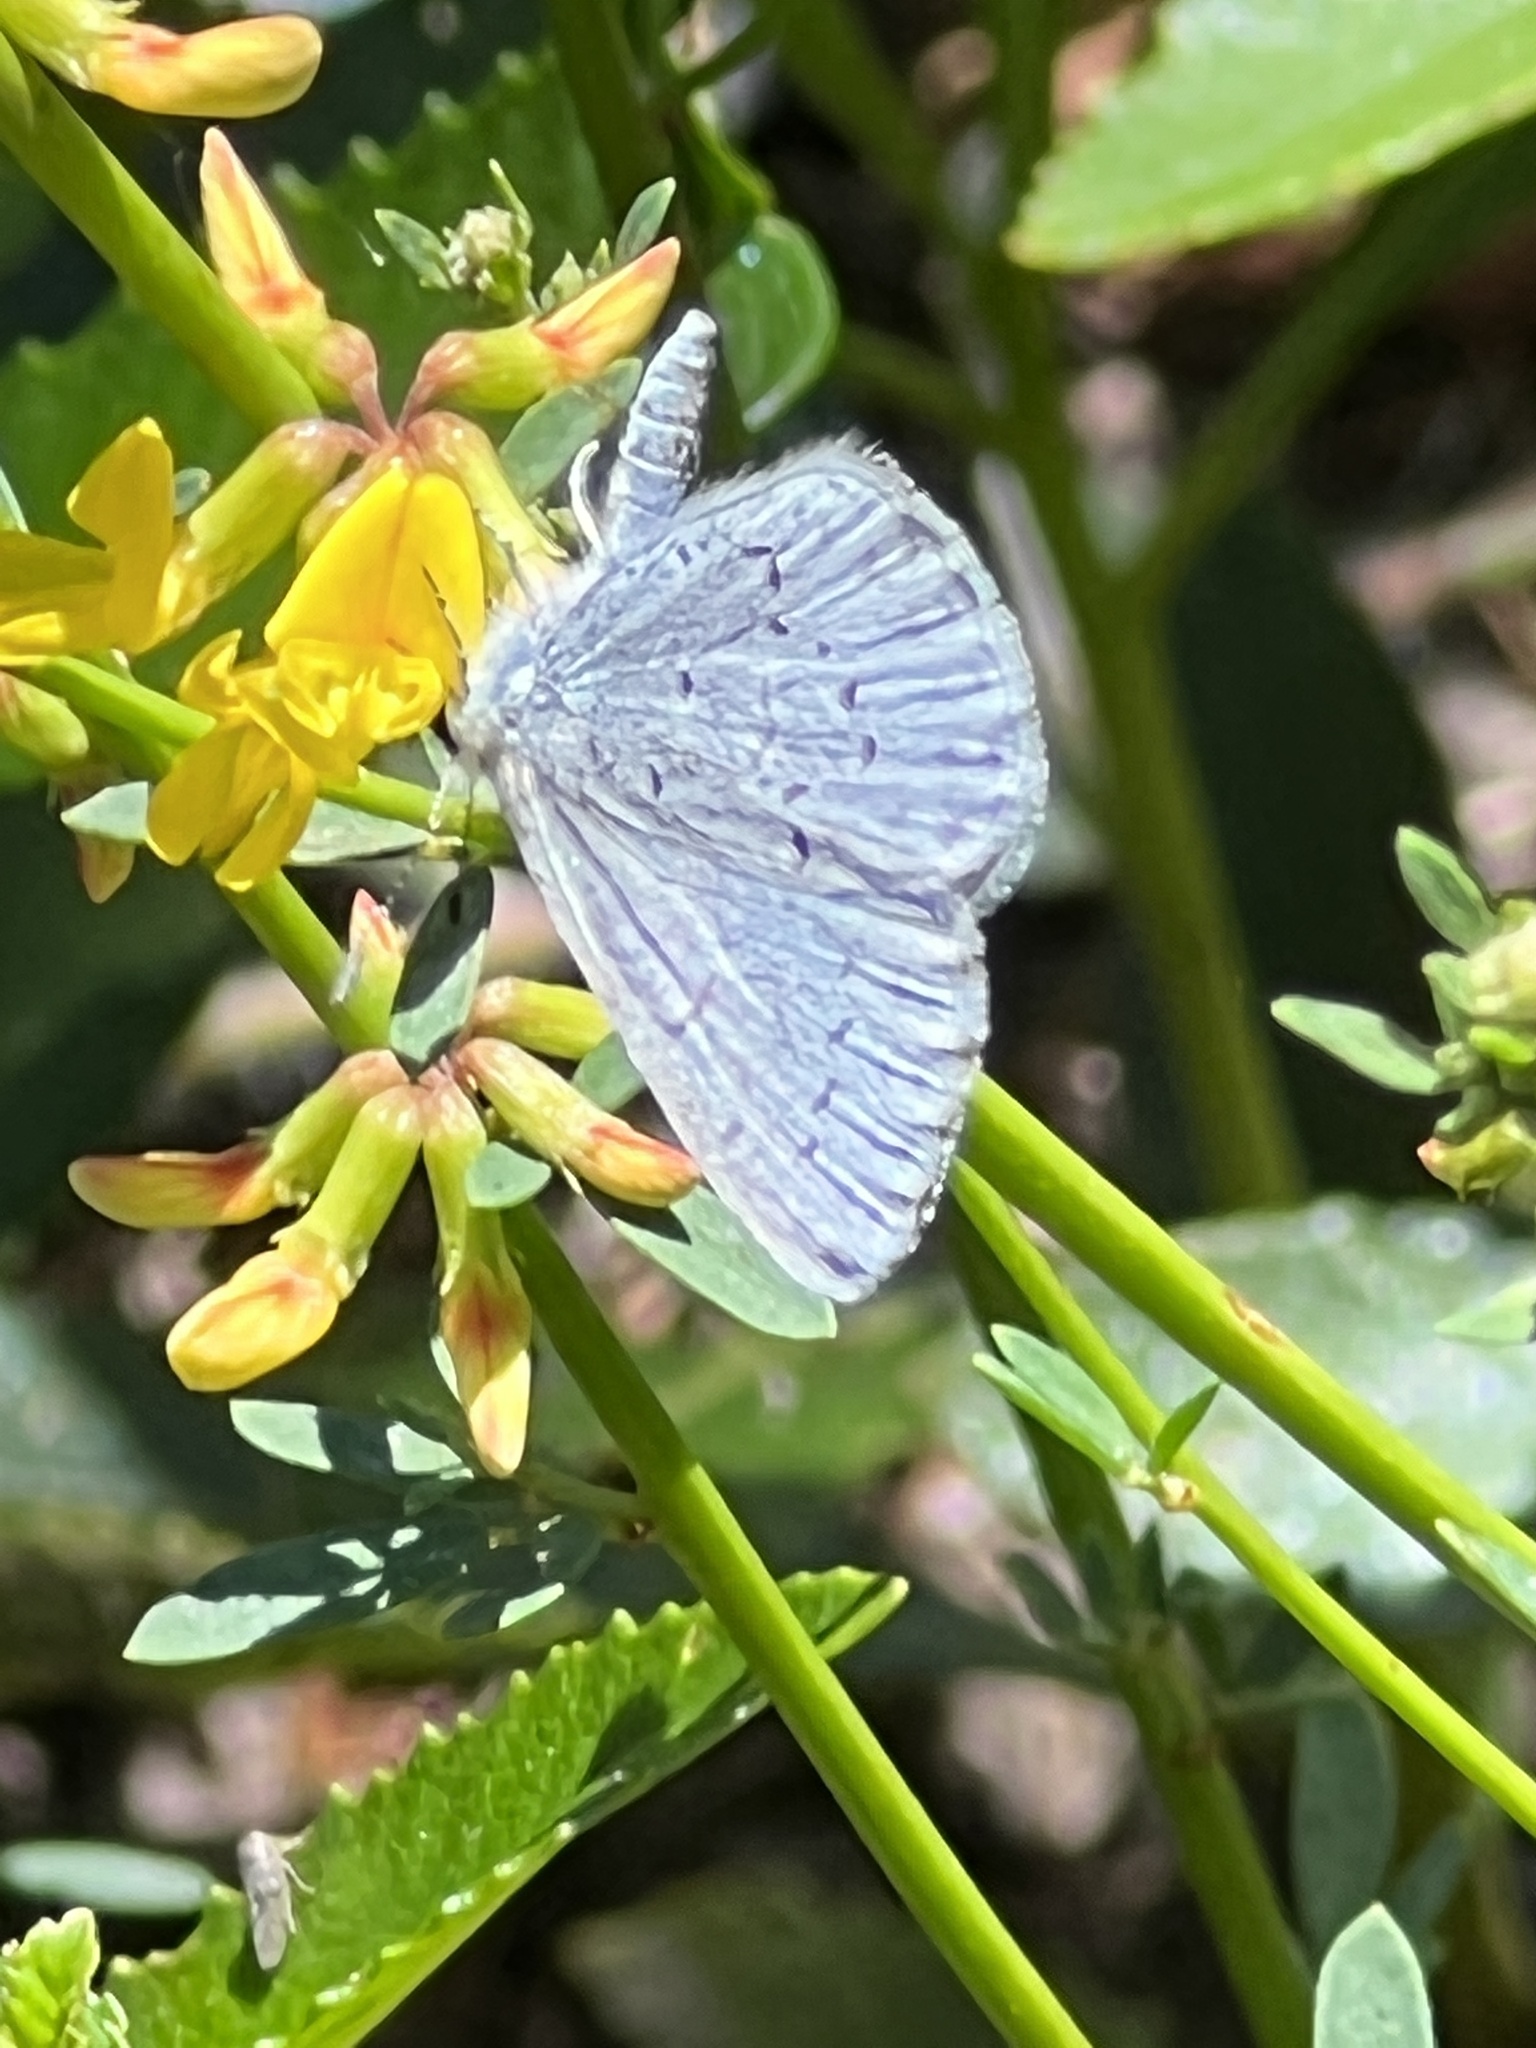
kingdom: Animalia
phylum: Arthropoda
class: Insecta
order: Lepidoptera
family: Lycaenidae
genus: Celastrina
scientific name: Celastrina ladon
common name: Spring azure
